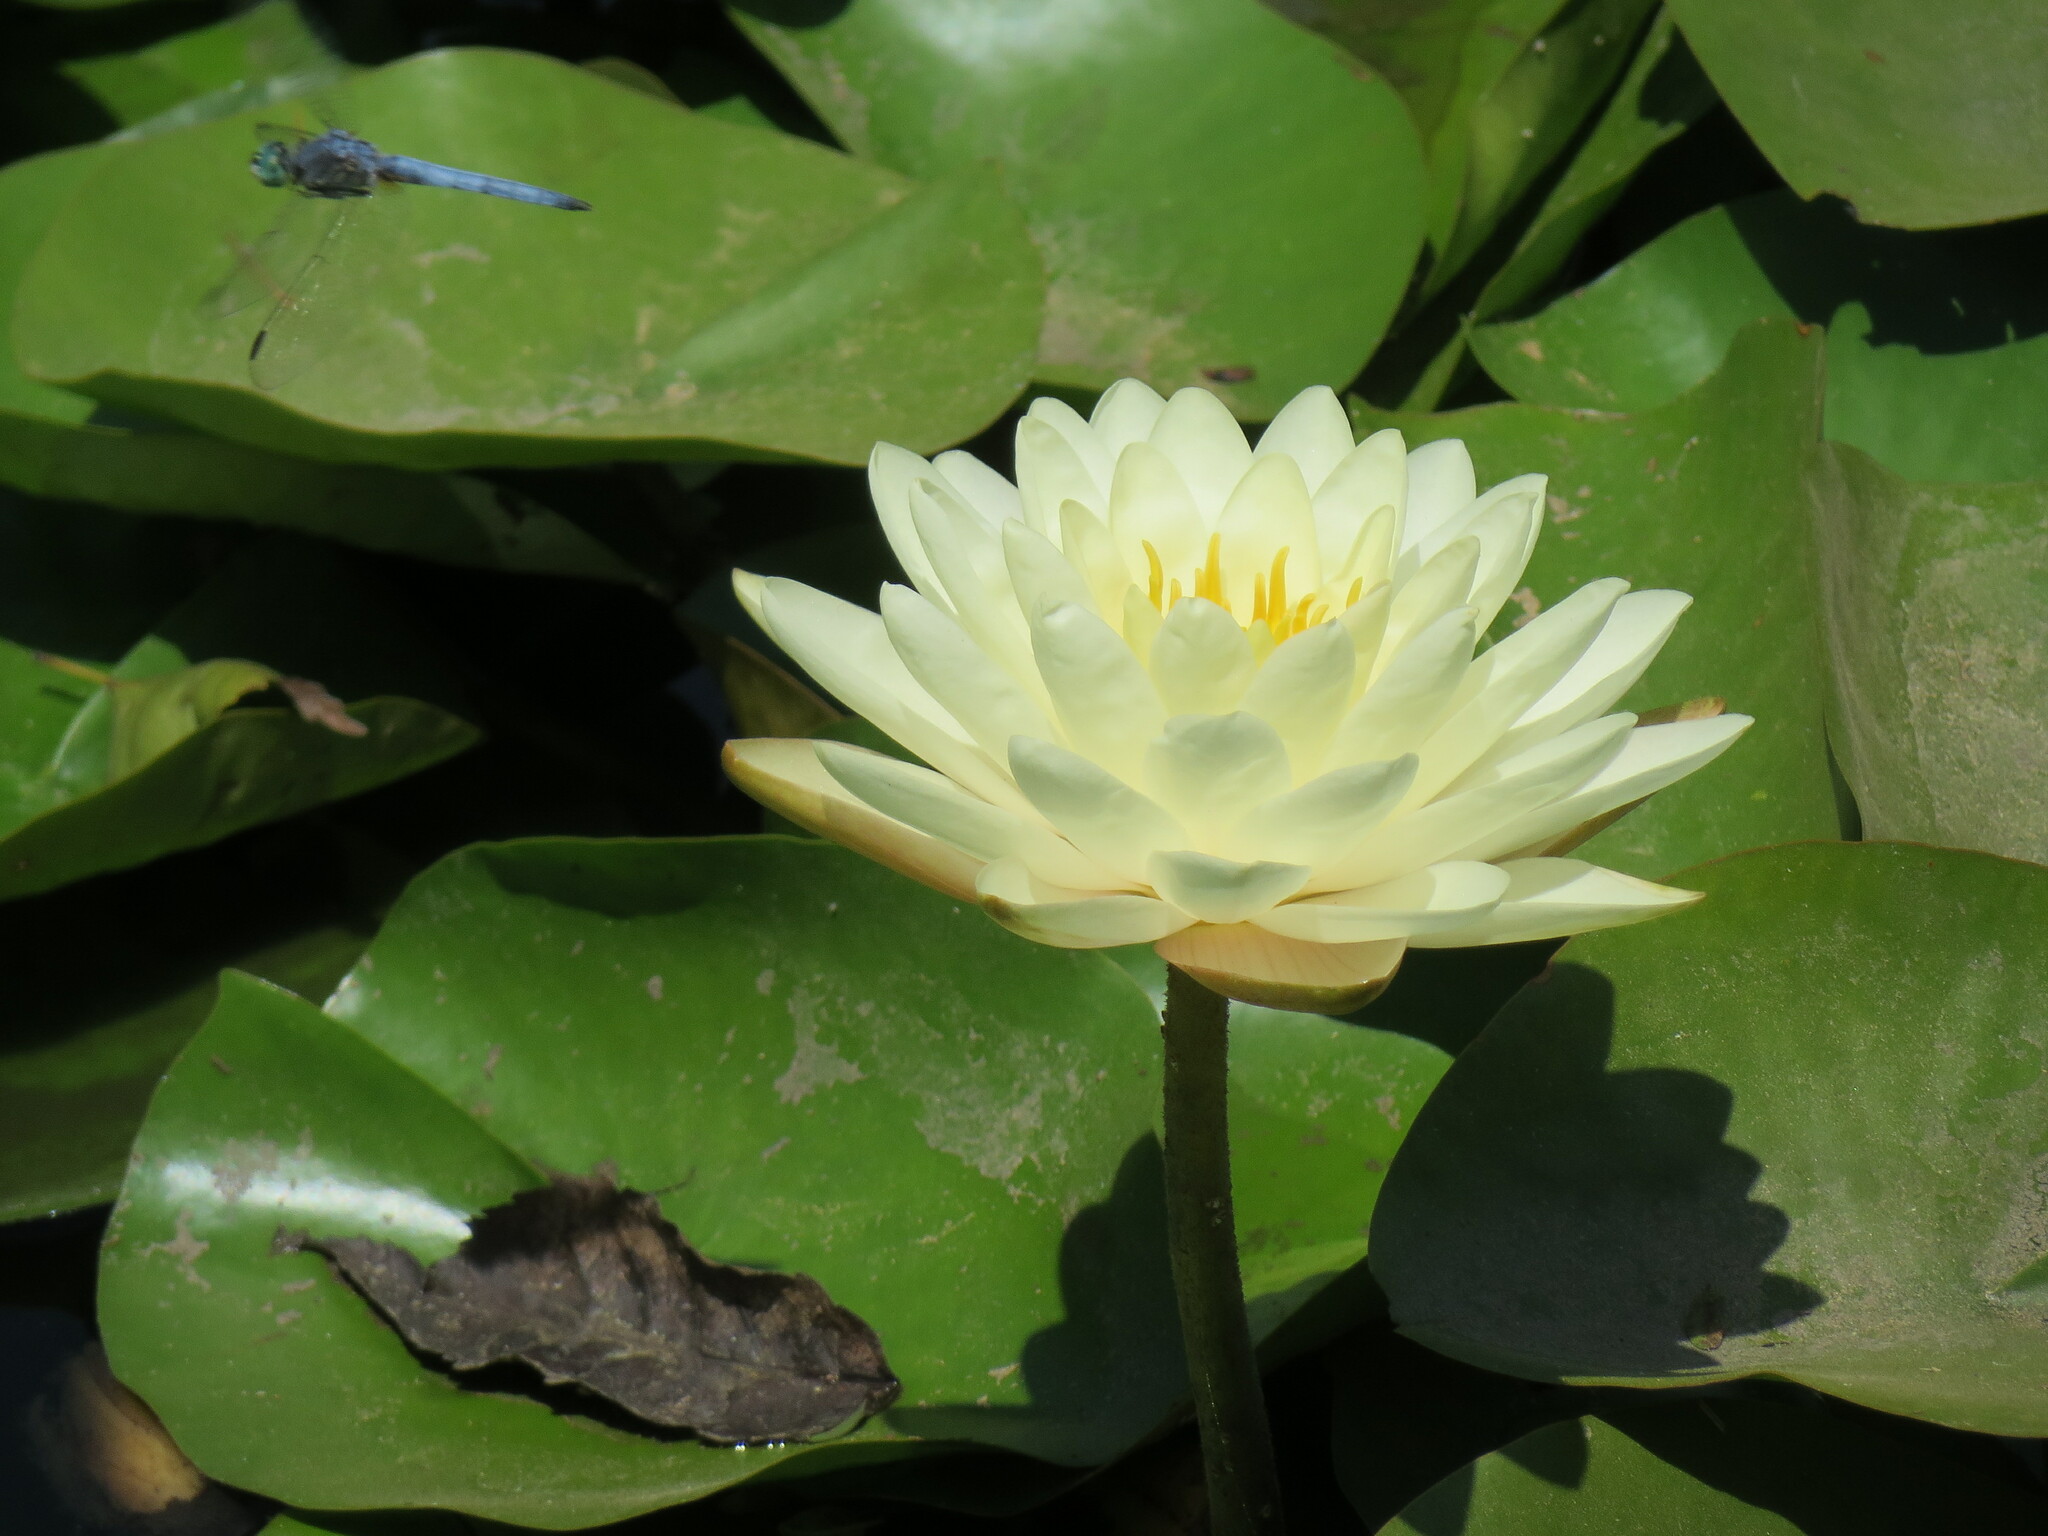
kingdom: Animalia
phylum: Arthropoda
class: Insecta
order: Odonata
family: Libellulidae
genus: Pachydiplax
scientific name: Pachydiplax longipennis
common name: Blue dasher
